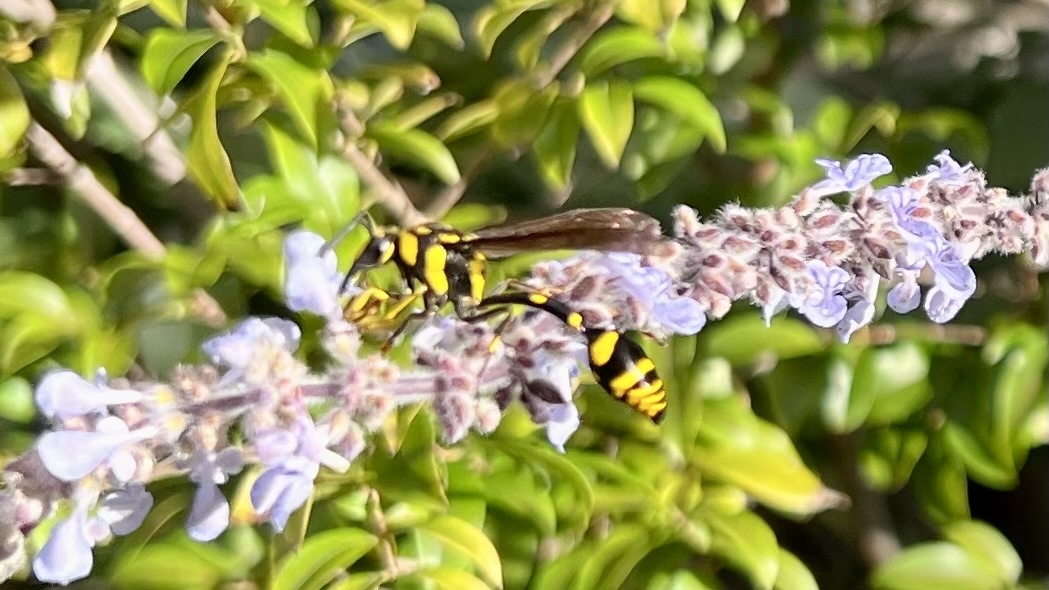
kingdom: Animalia
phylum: Arthropoda
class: Insecta
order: Hymenoptera
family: Eumenidae
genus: Phimenes
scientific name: Phimenes arcuatus
